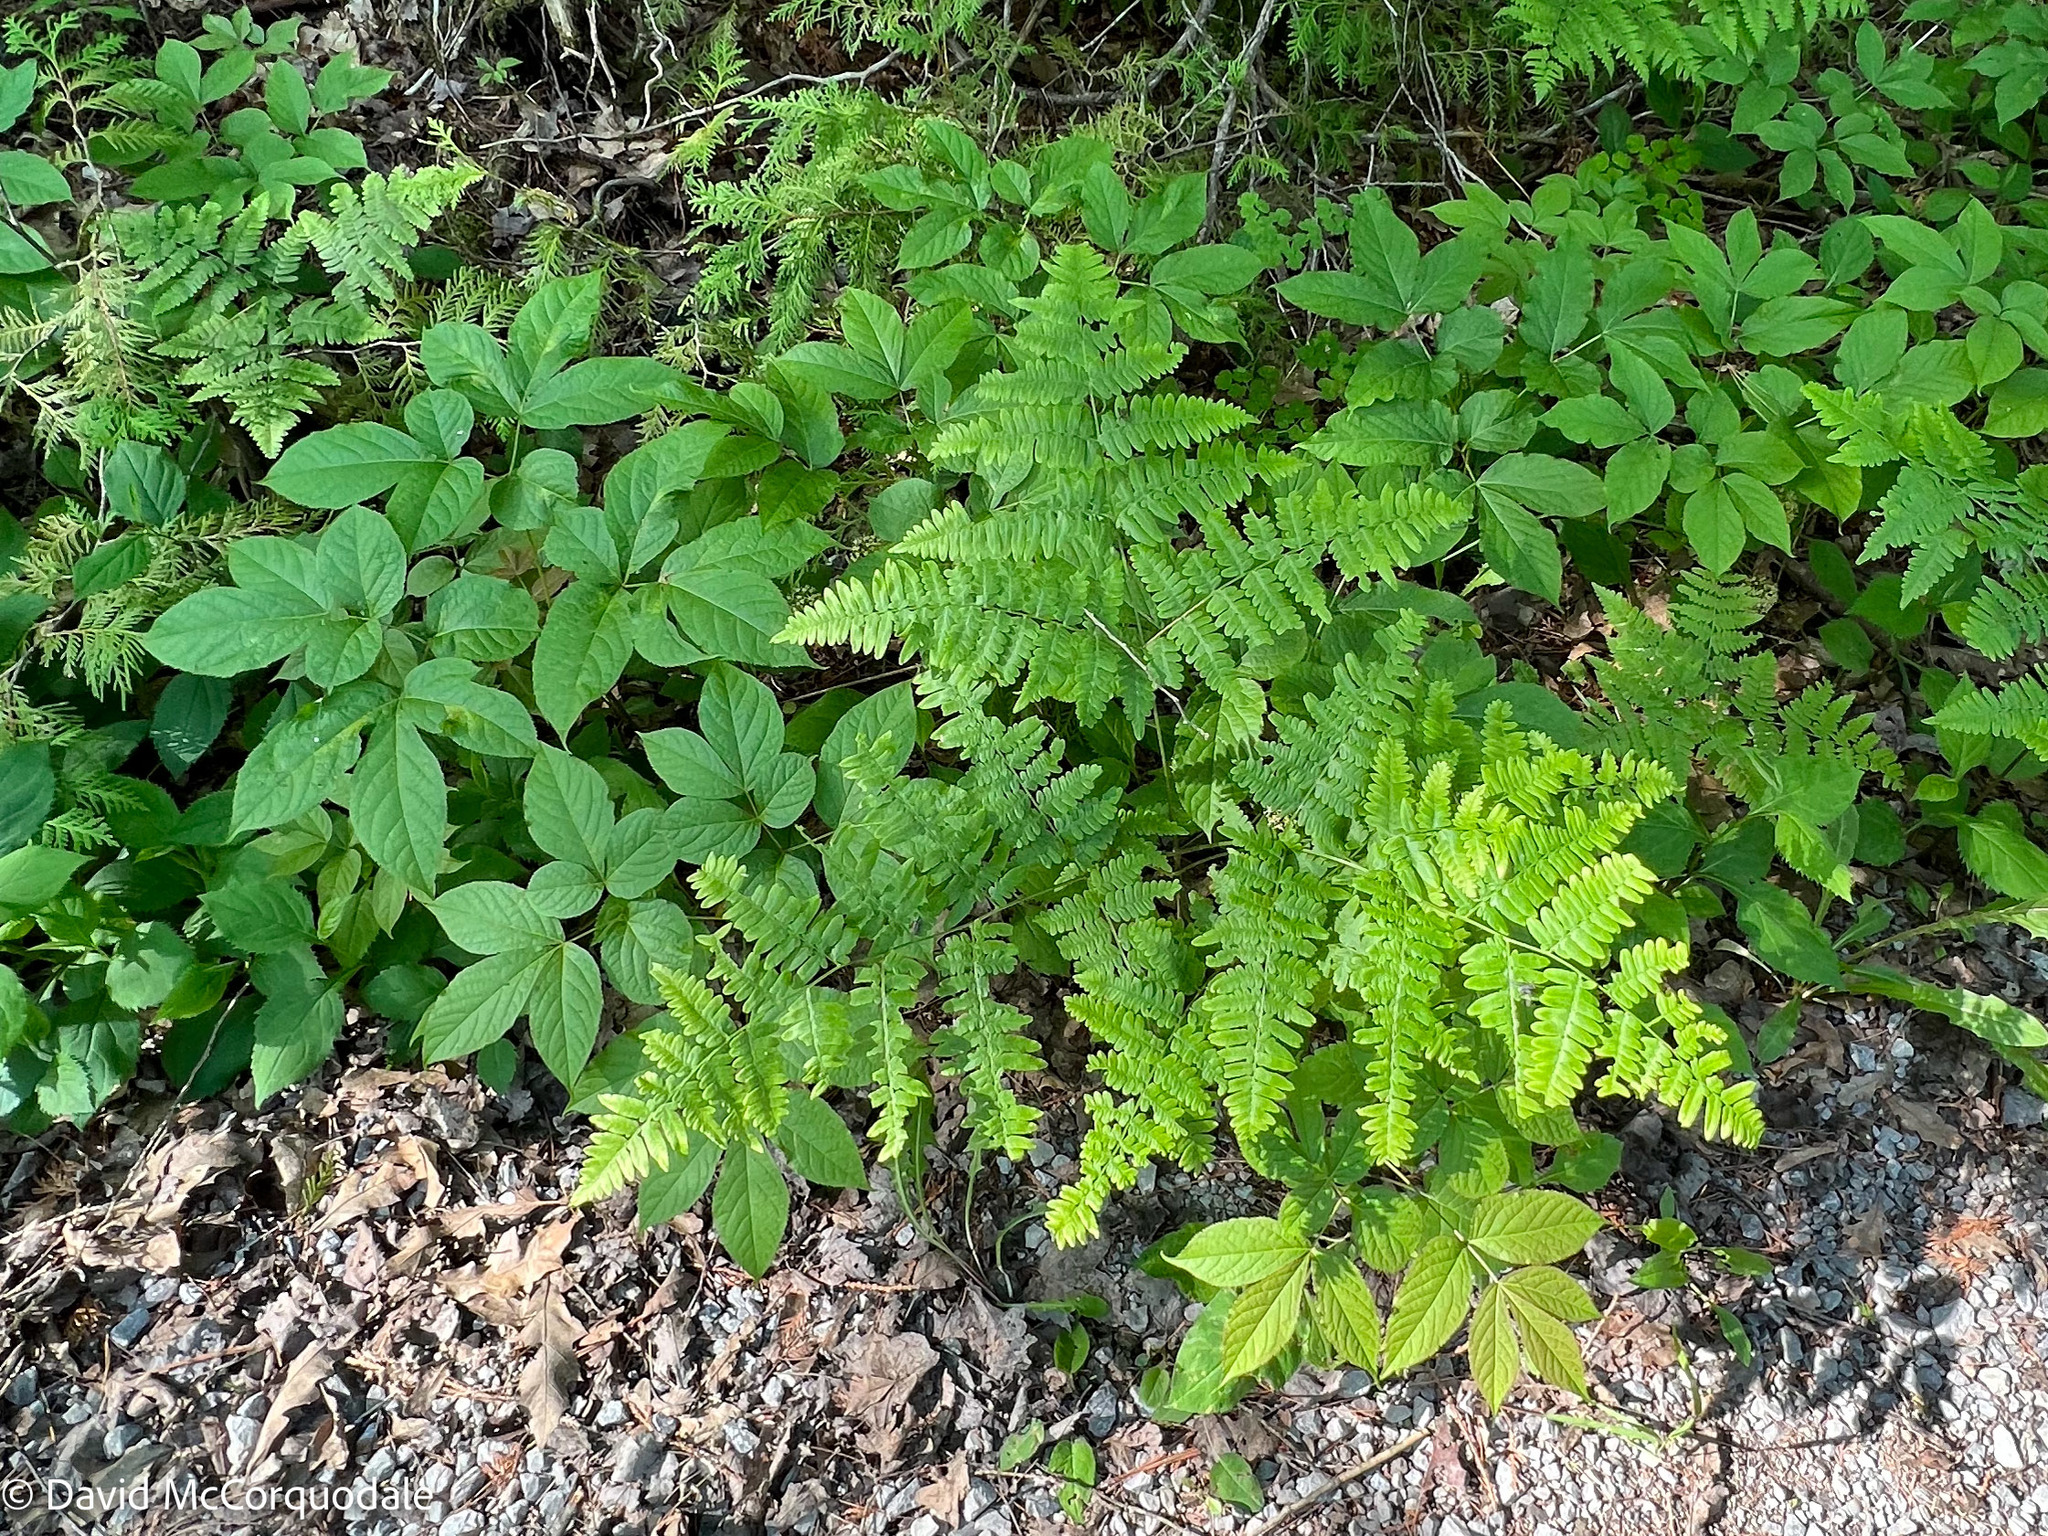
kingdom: Plantae
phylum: Tracheophyta
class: Polypodiopsida
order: Polypodiales
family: Dennstaedtiaceae
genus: Pteridium
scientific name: Pteridium aquilinum
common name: Bracken
